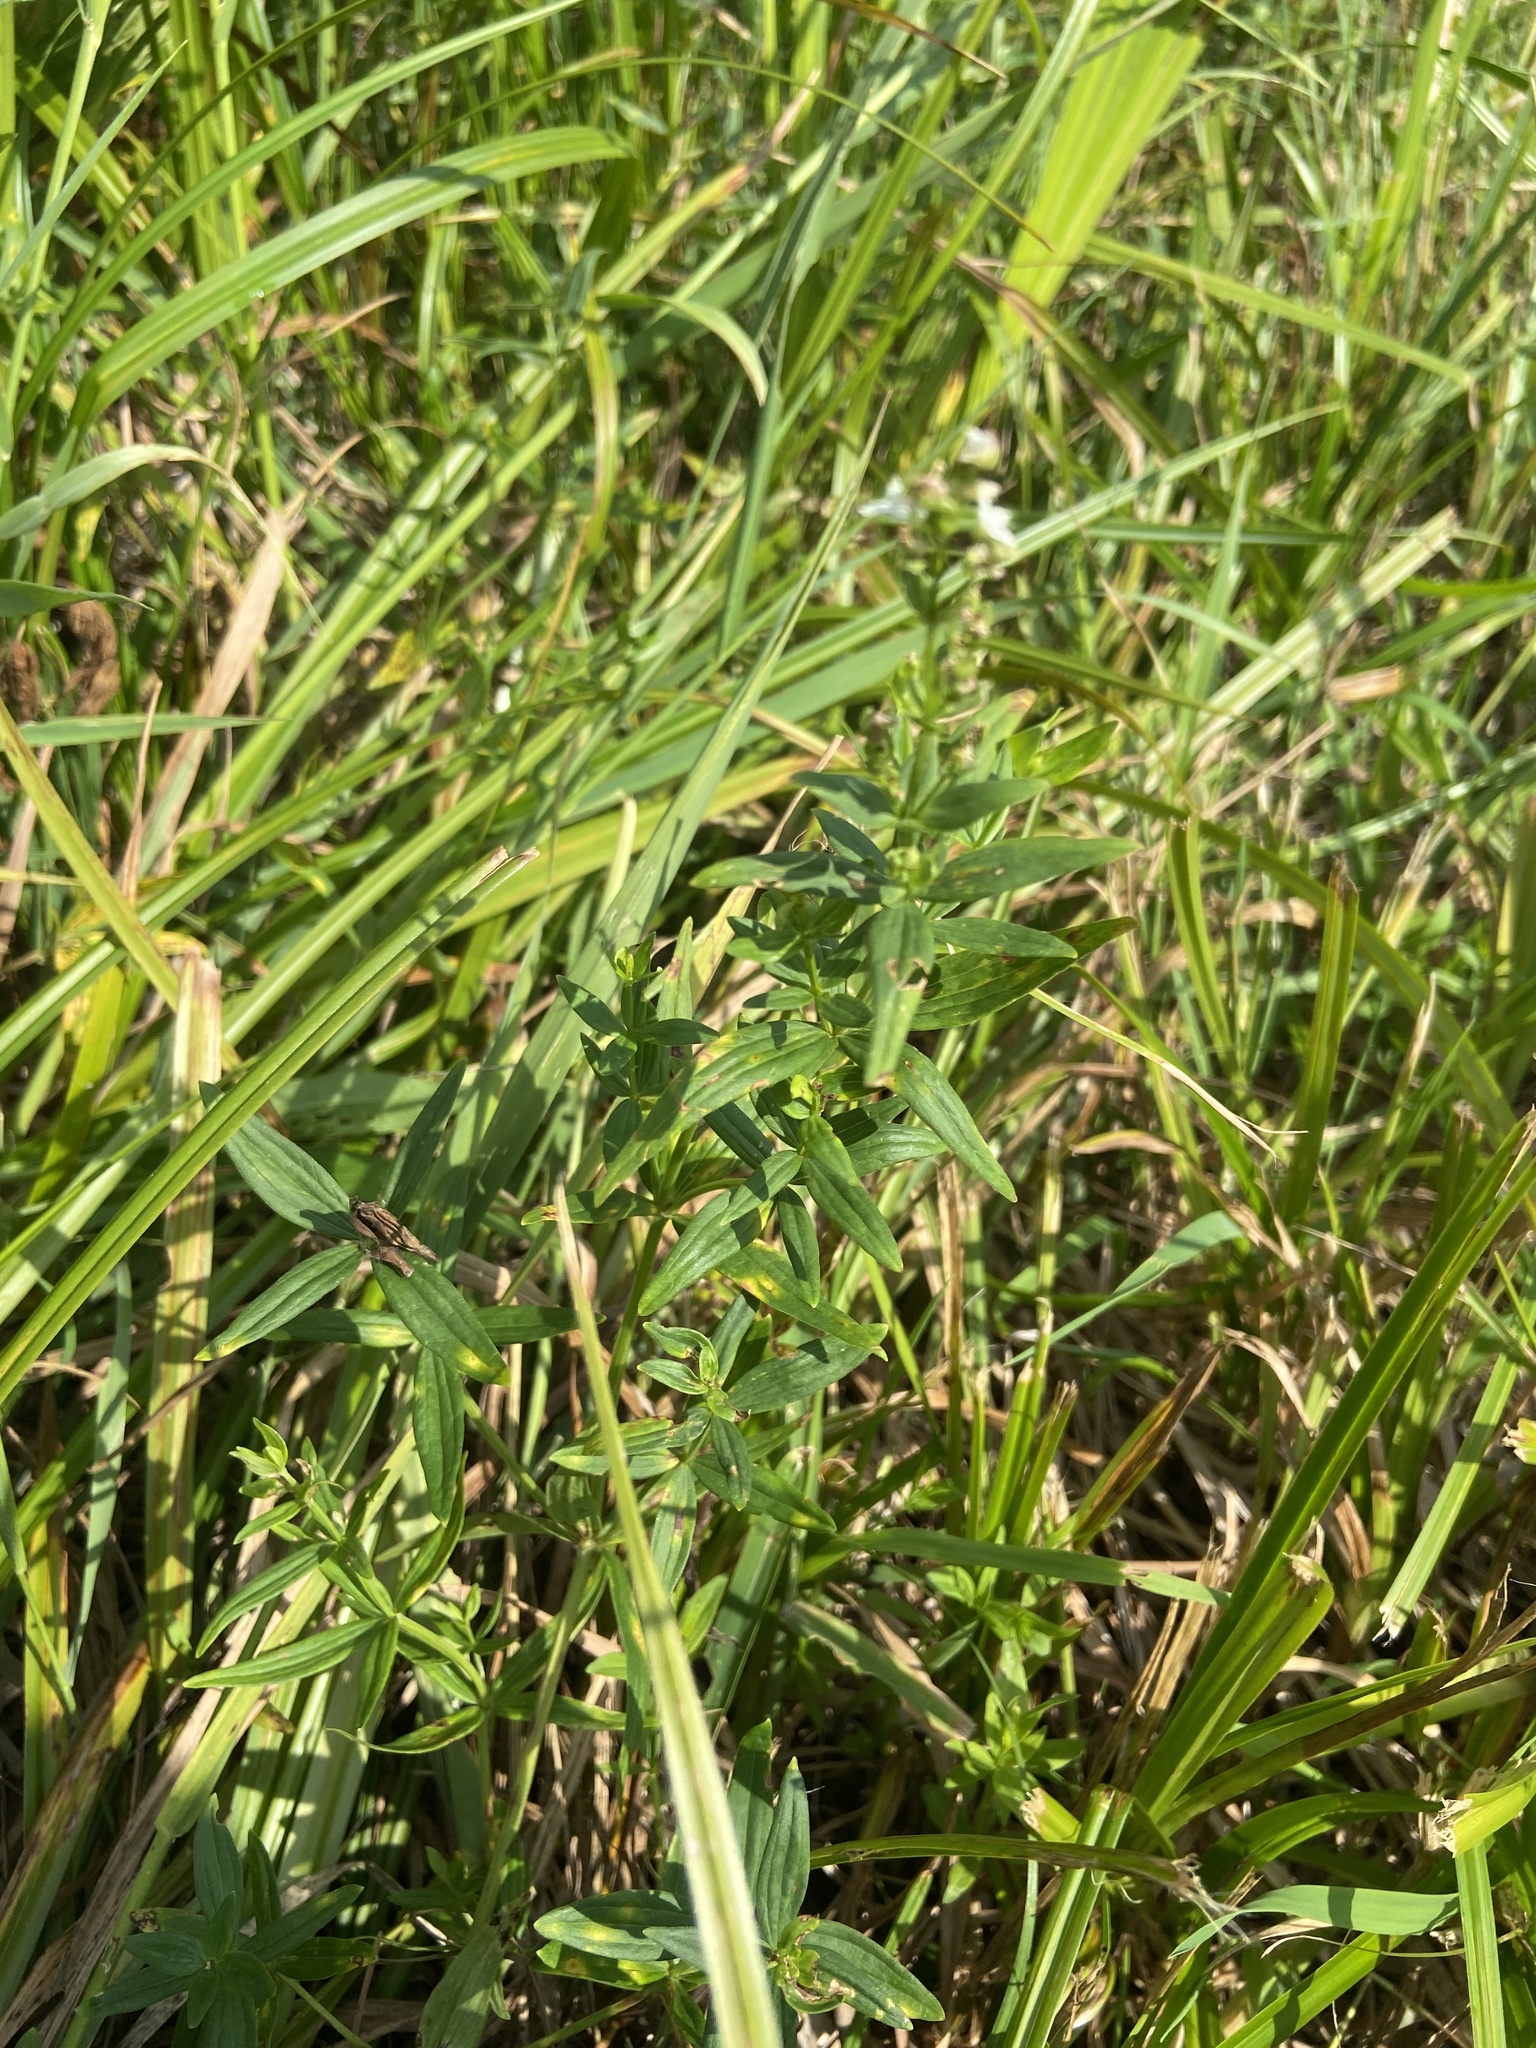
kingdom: Plantae
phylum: Tracheophyta
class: Magnoliopsida
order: Gentianales
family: Rubiaceae
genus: Galium
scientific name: Galium boreale
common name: Northern bedstraw
